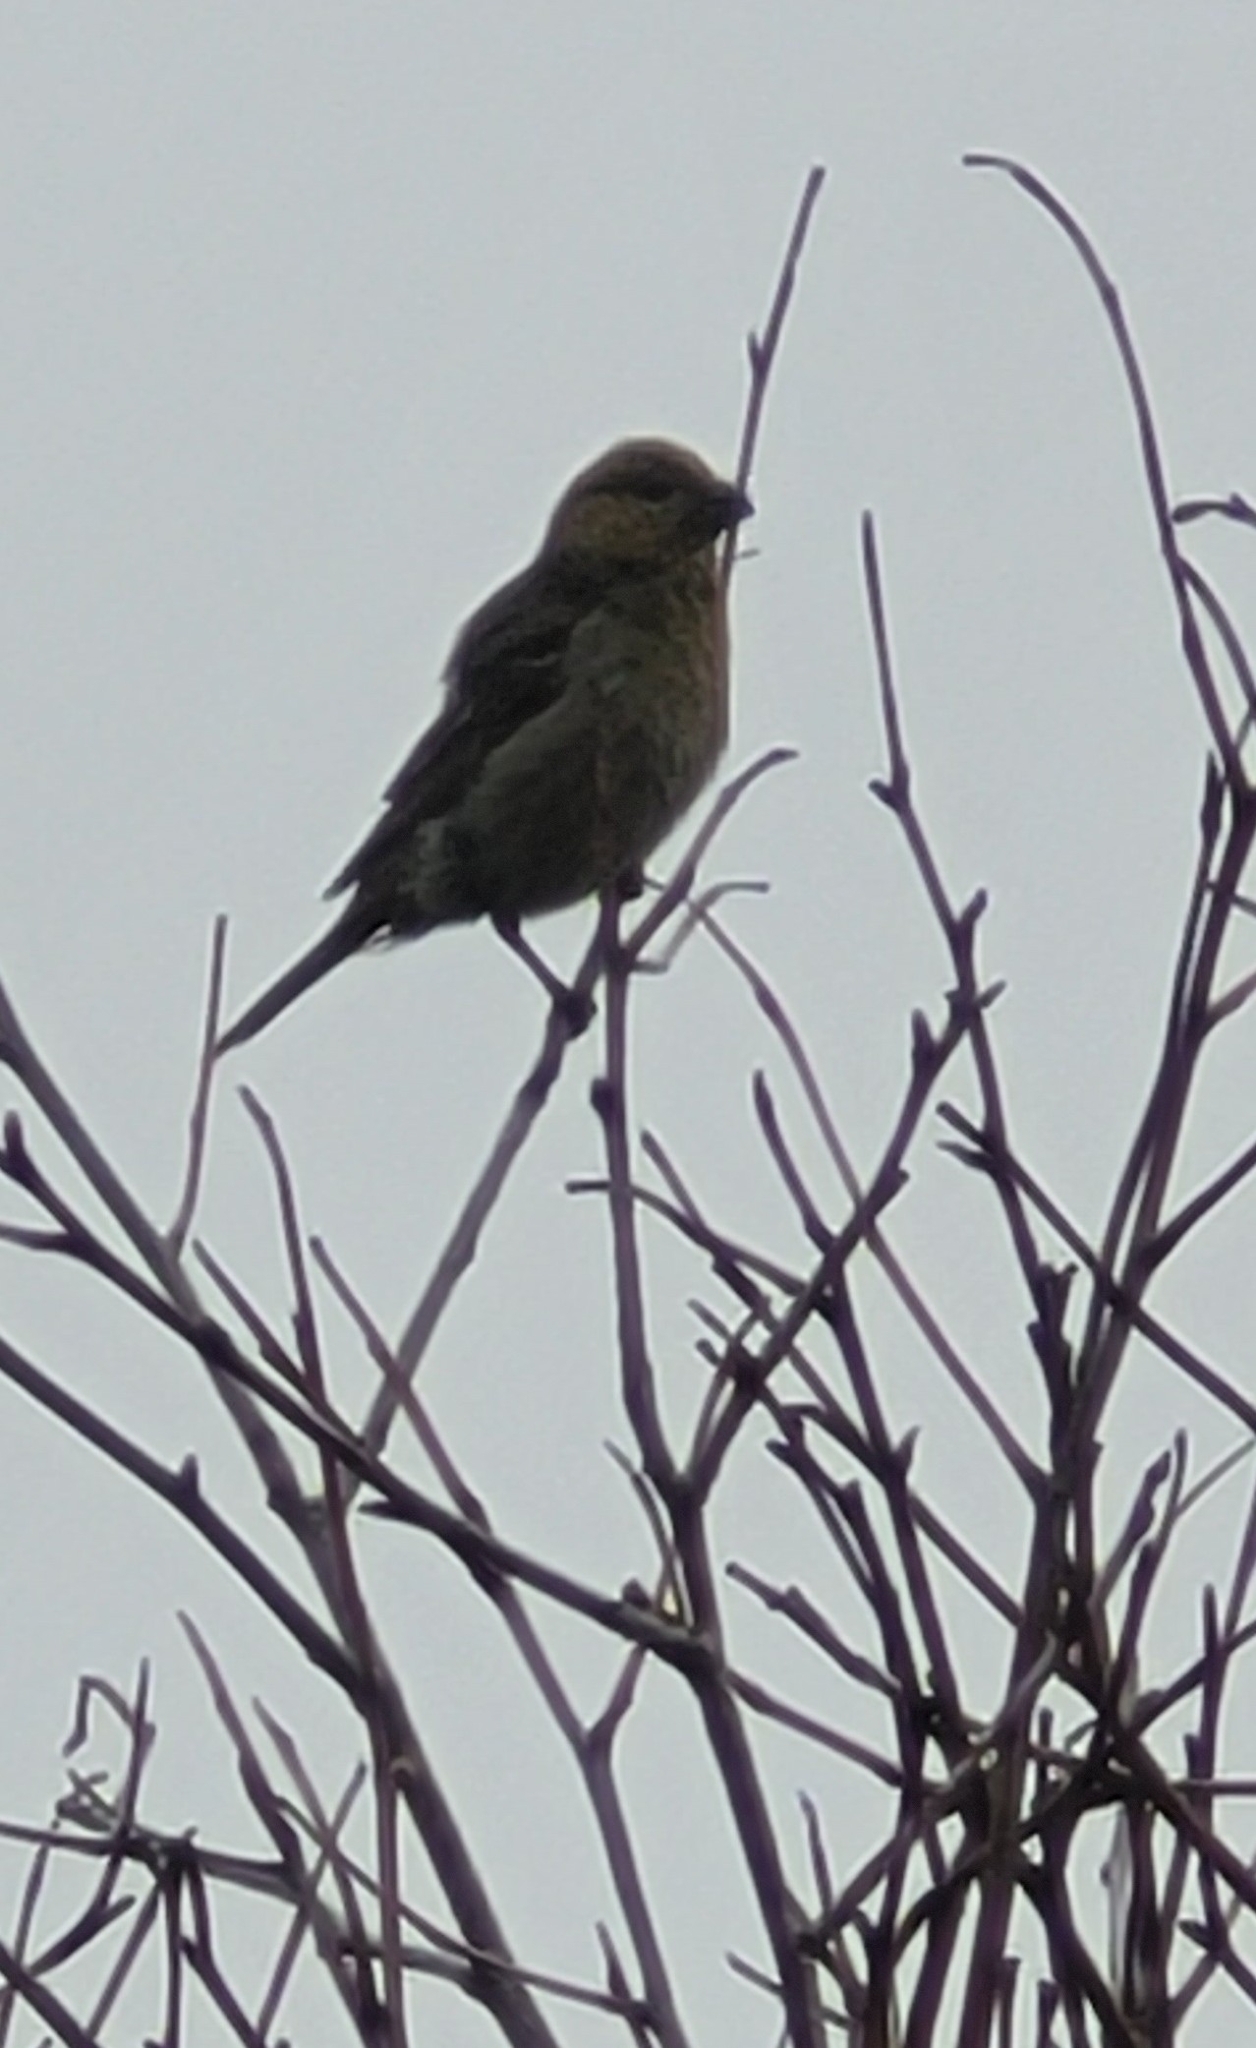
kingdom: Animalia
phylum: Chordata
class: Aves
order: Passeriformes
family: Fringillidae
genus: Pinicola
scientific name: Pinicola enucleator
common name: Pine grosbeak
